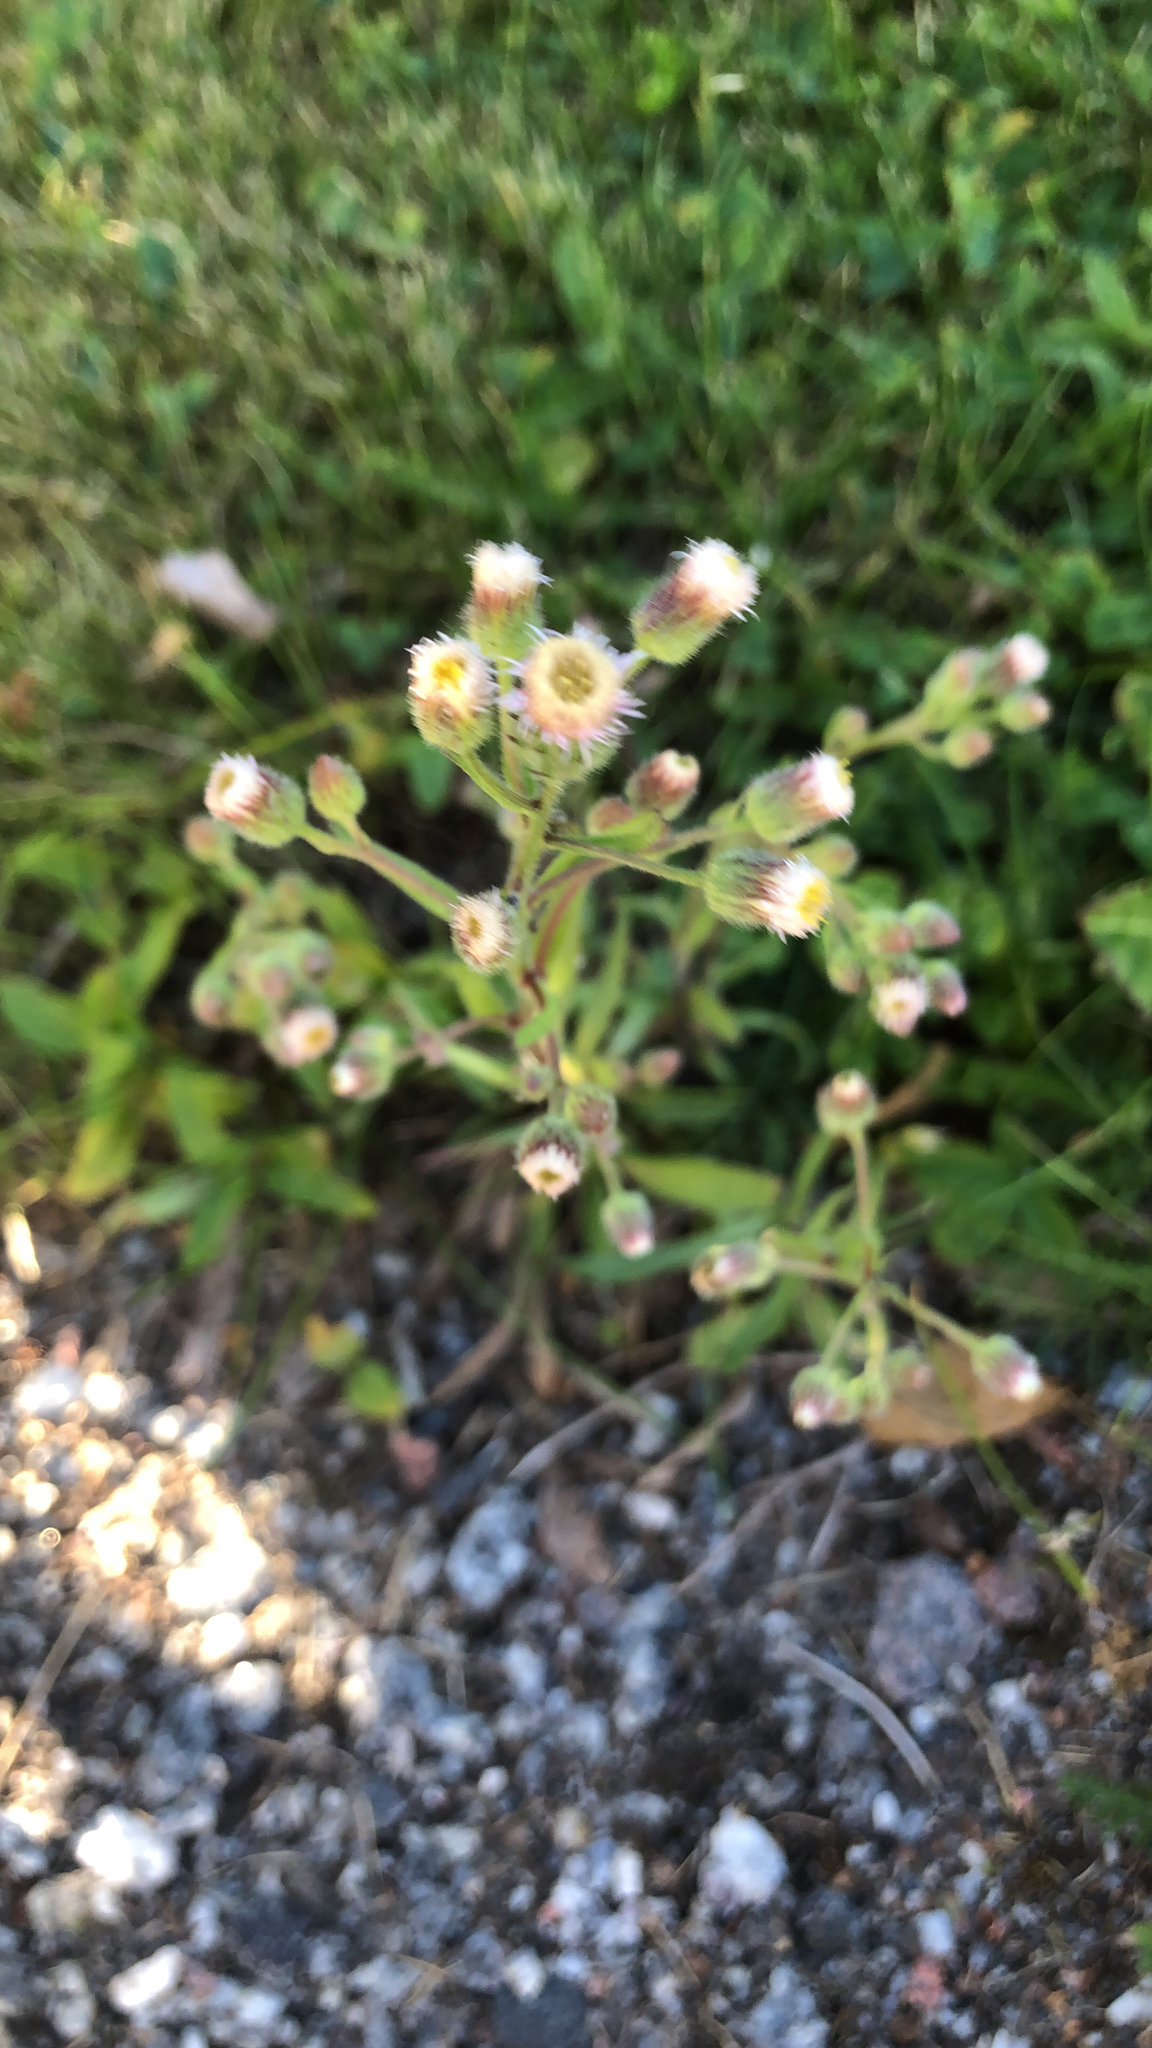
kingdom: Plantae
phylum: Tracheophyta
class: Magnoliopsida
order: Asterales
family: Asteraceae
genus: Erigeron
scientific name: Erigeron acris
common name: Blue fleabane
